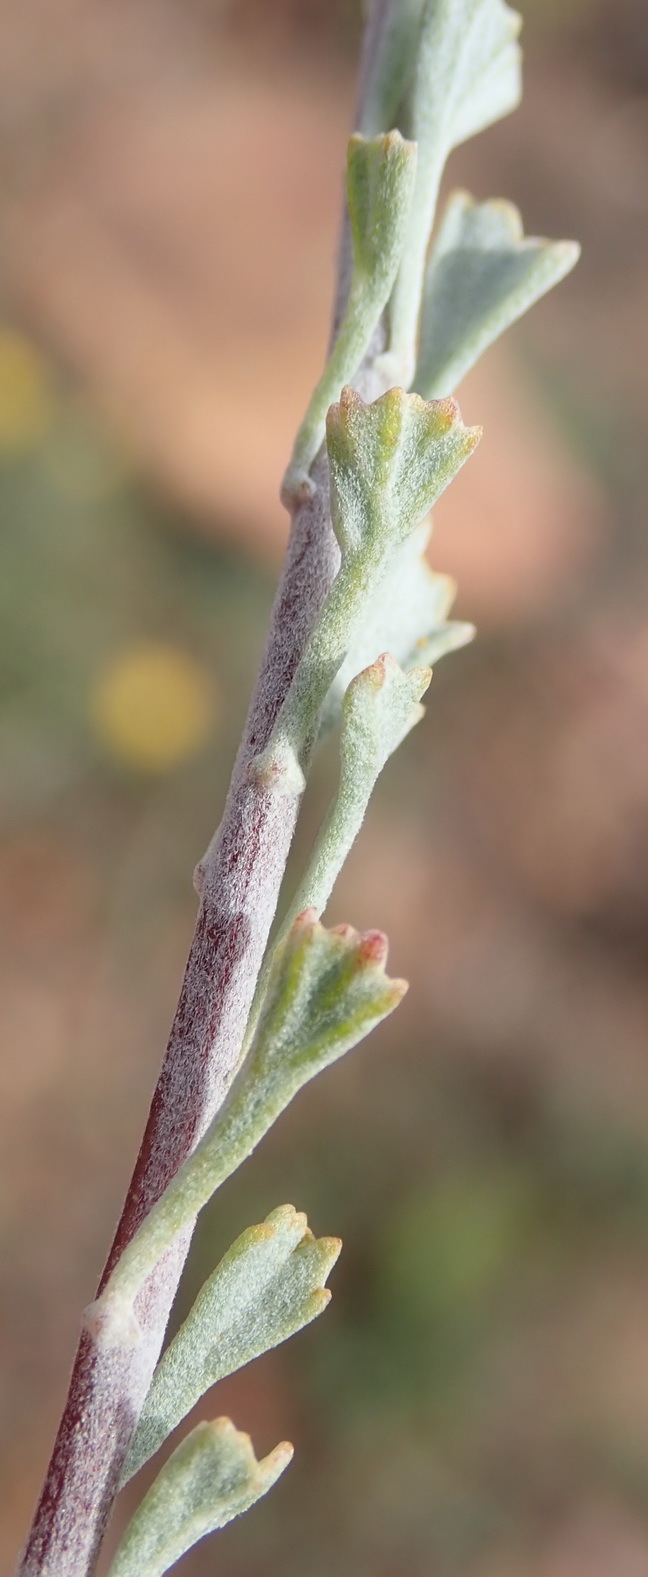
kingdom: Plantae
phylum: Tracheophyta
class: Magnoliopsida
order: Asterales
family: Asteraceae
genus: Pentzia
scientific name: Pentzia dentata
